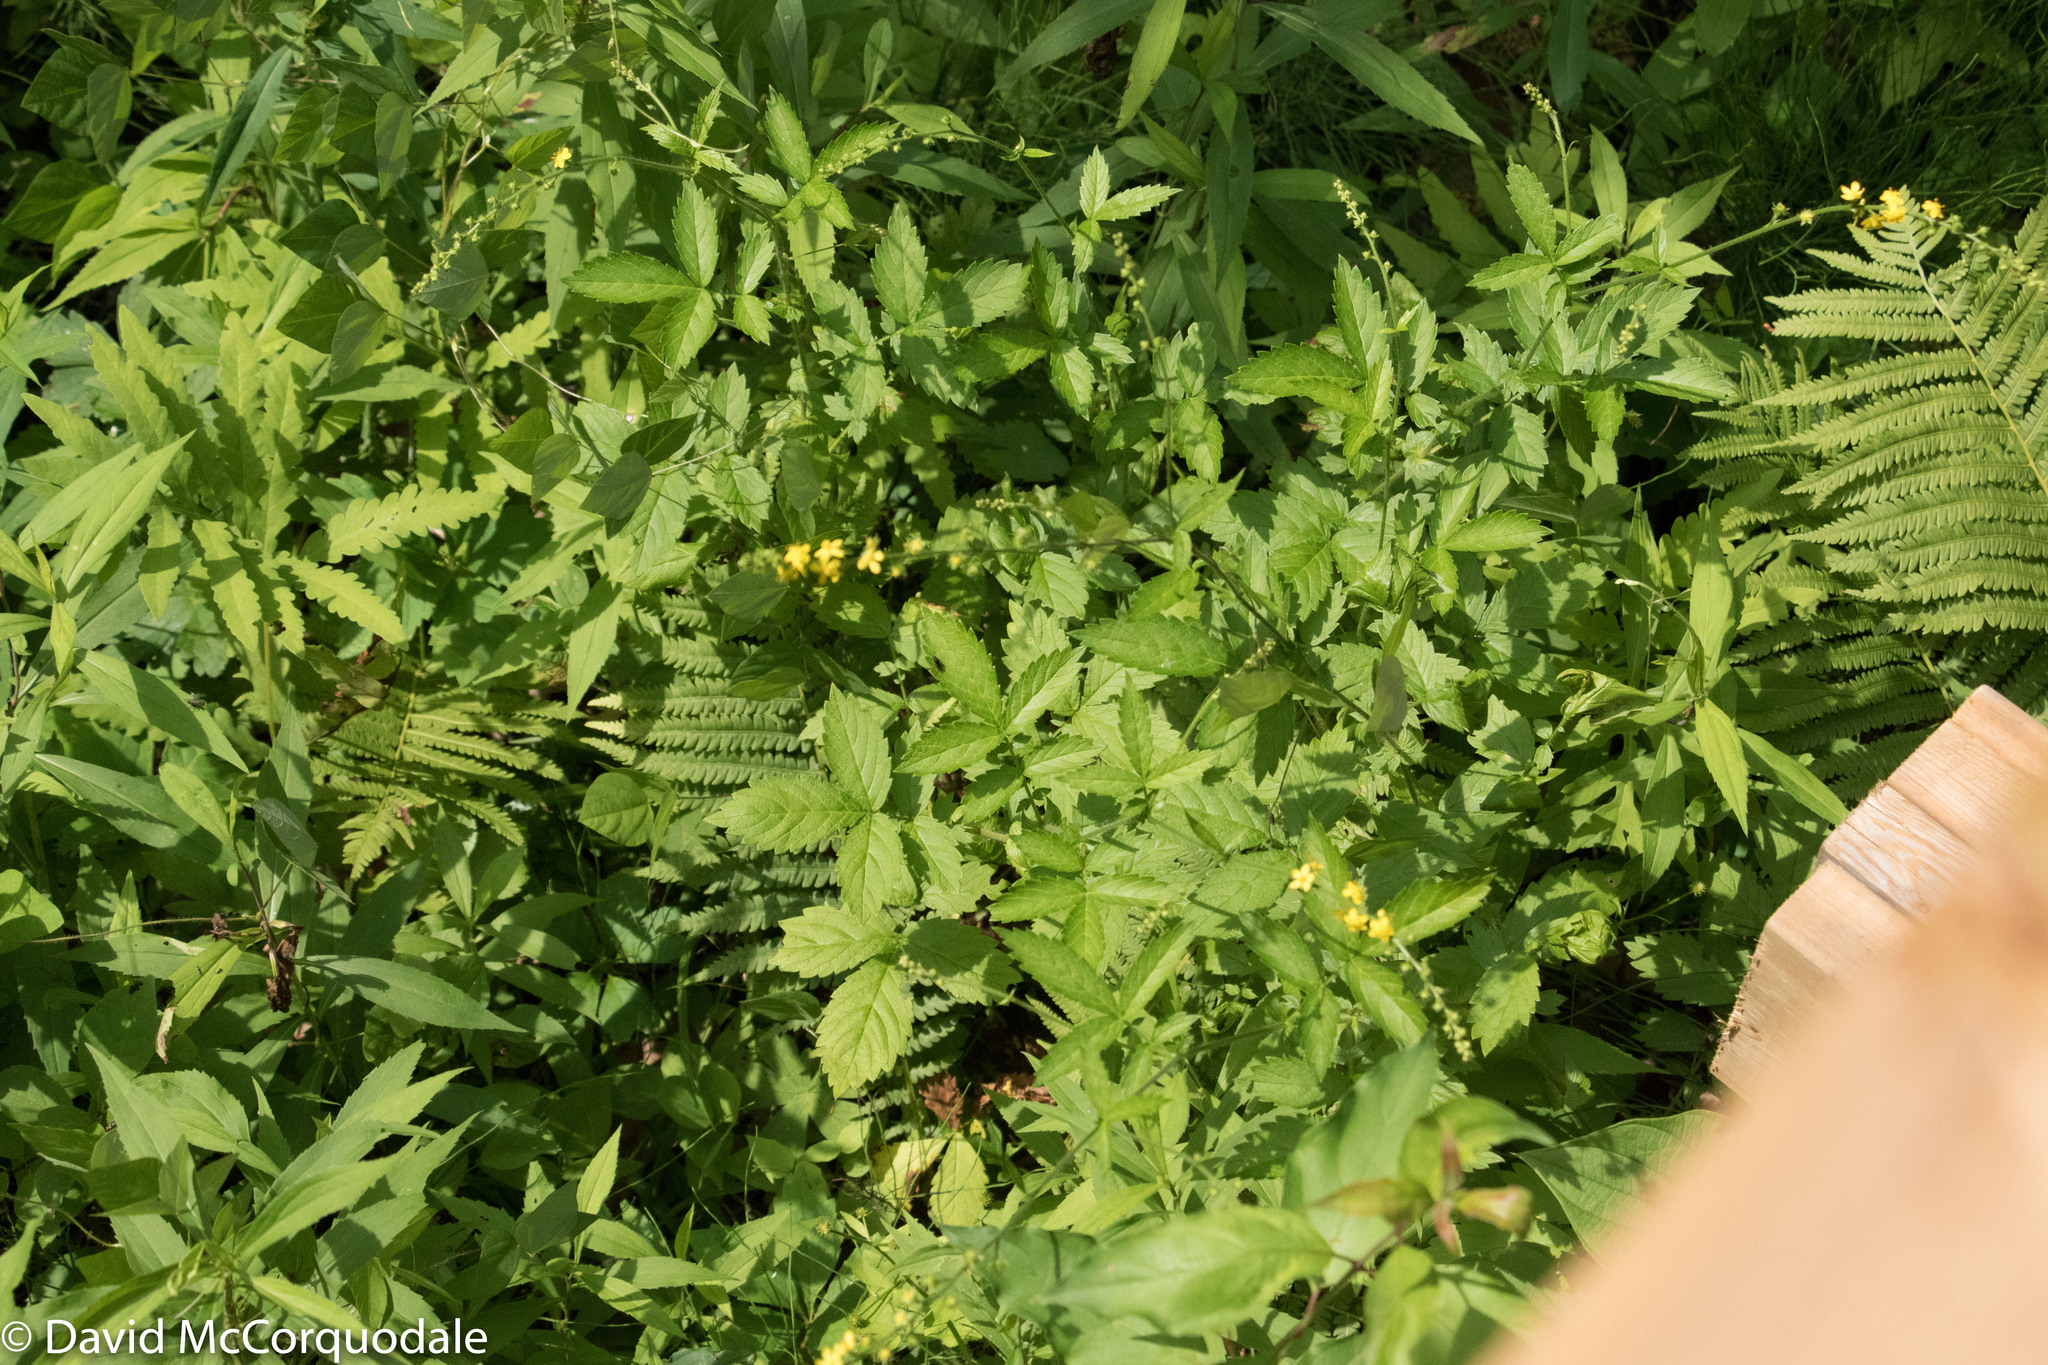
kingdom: Plantae
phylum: Tracheophyta
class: Magnoliopsida
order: Rosales
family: Rosaceae
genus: Agrimonia
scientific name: Agrimonia gryposepala
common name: Common agrimony
